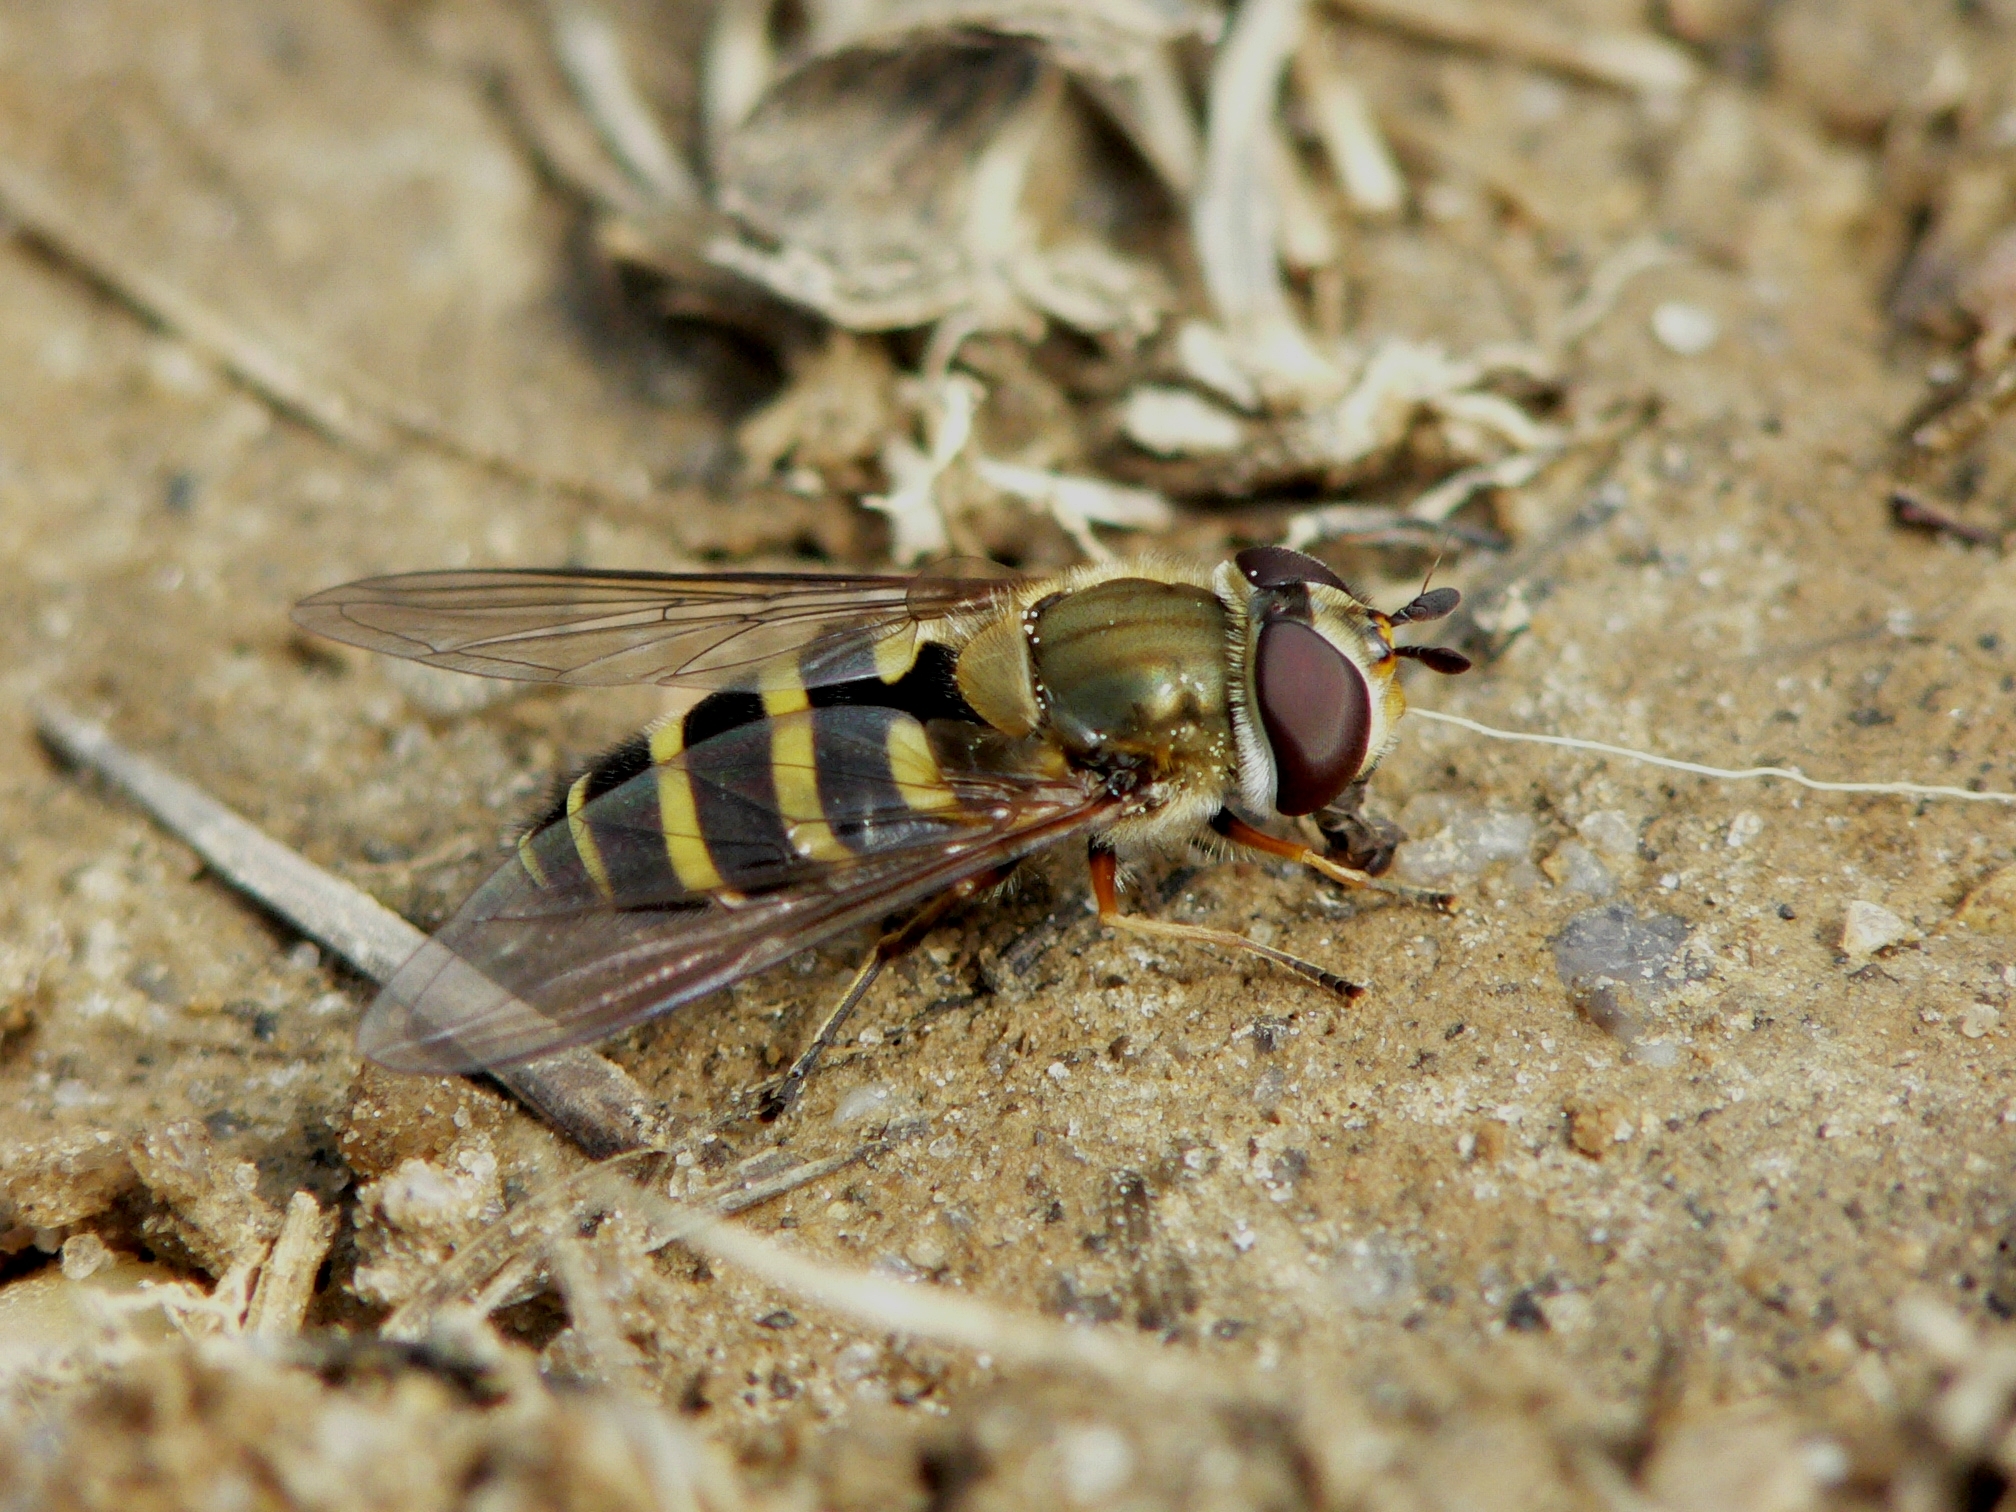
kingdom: Animalia
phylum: Arthropoda
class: Insecta
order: Diptera
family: Syrphidae
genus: Syrphus
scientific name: Syrphus torvus
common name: Hairy-eyed flower fly
